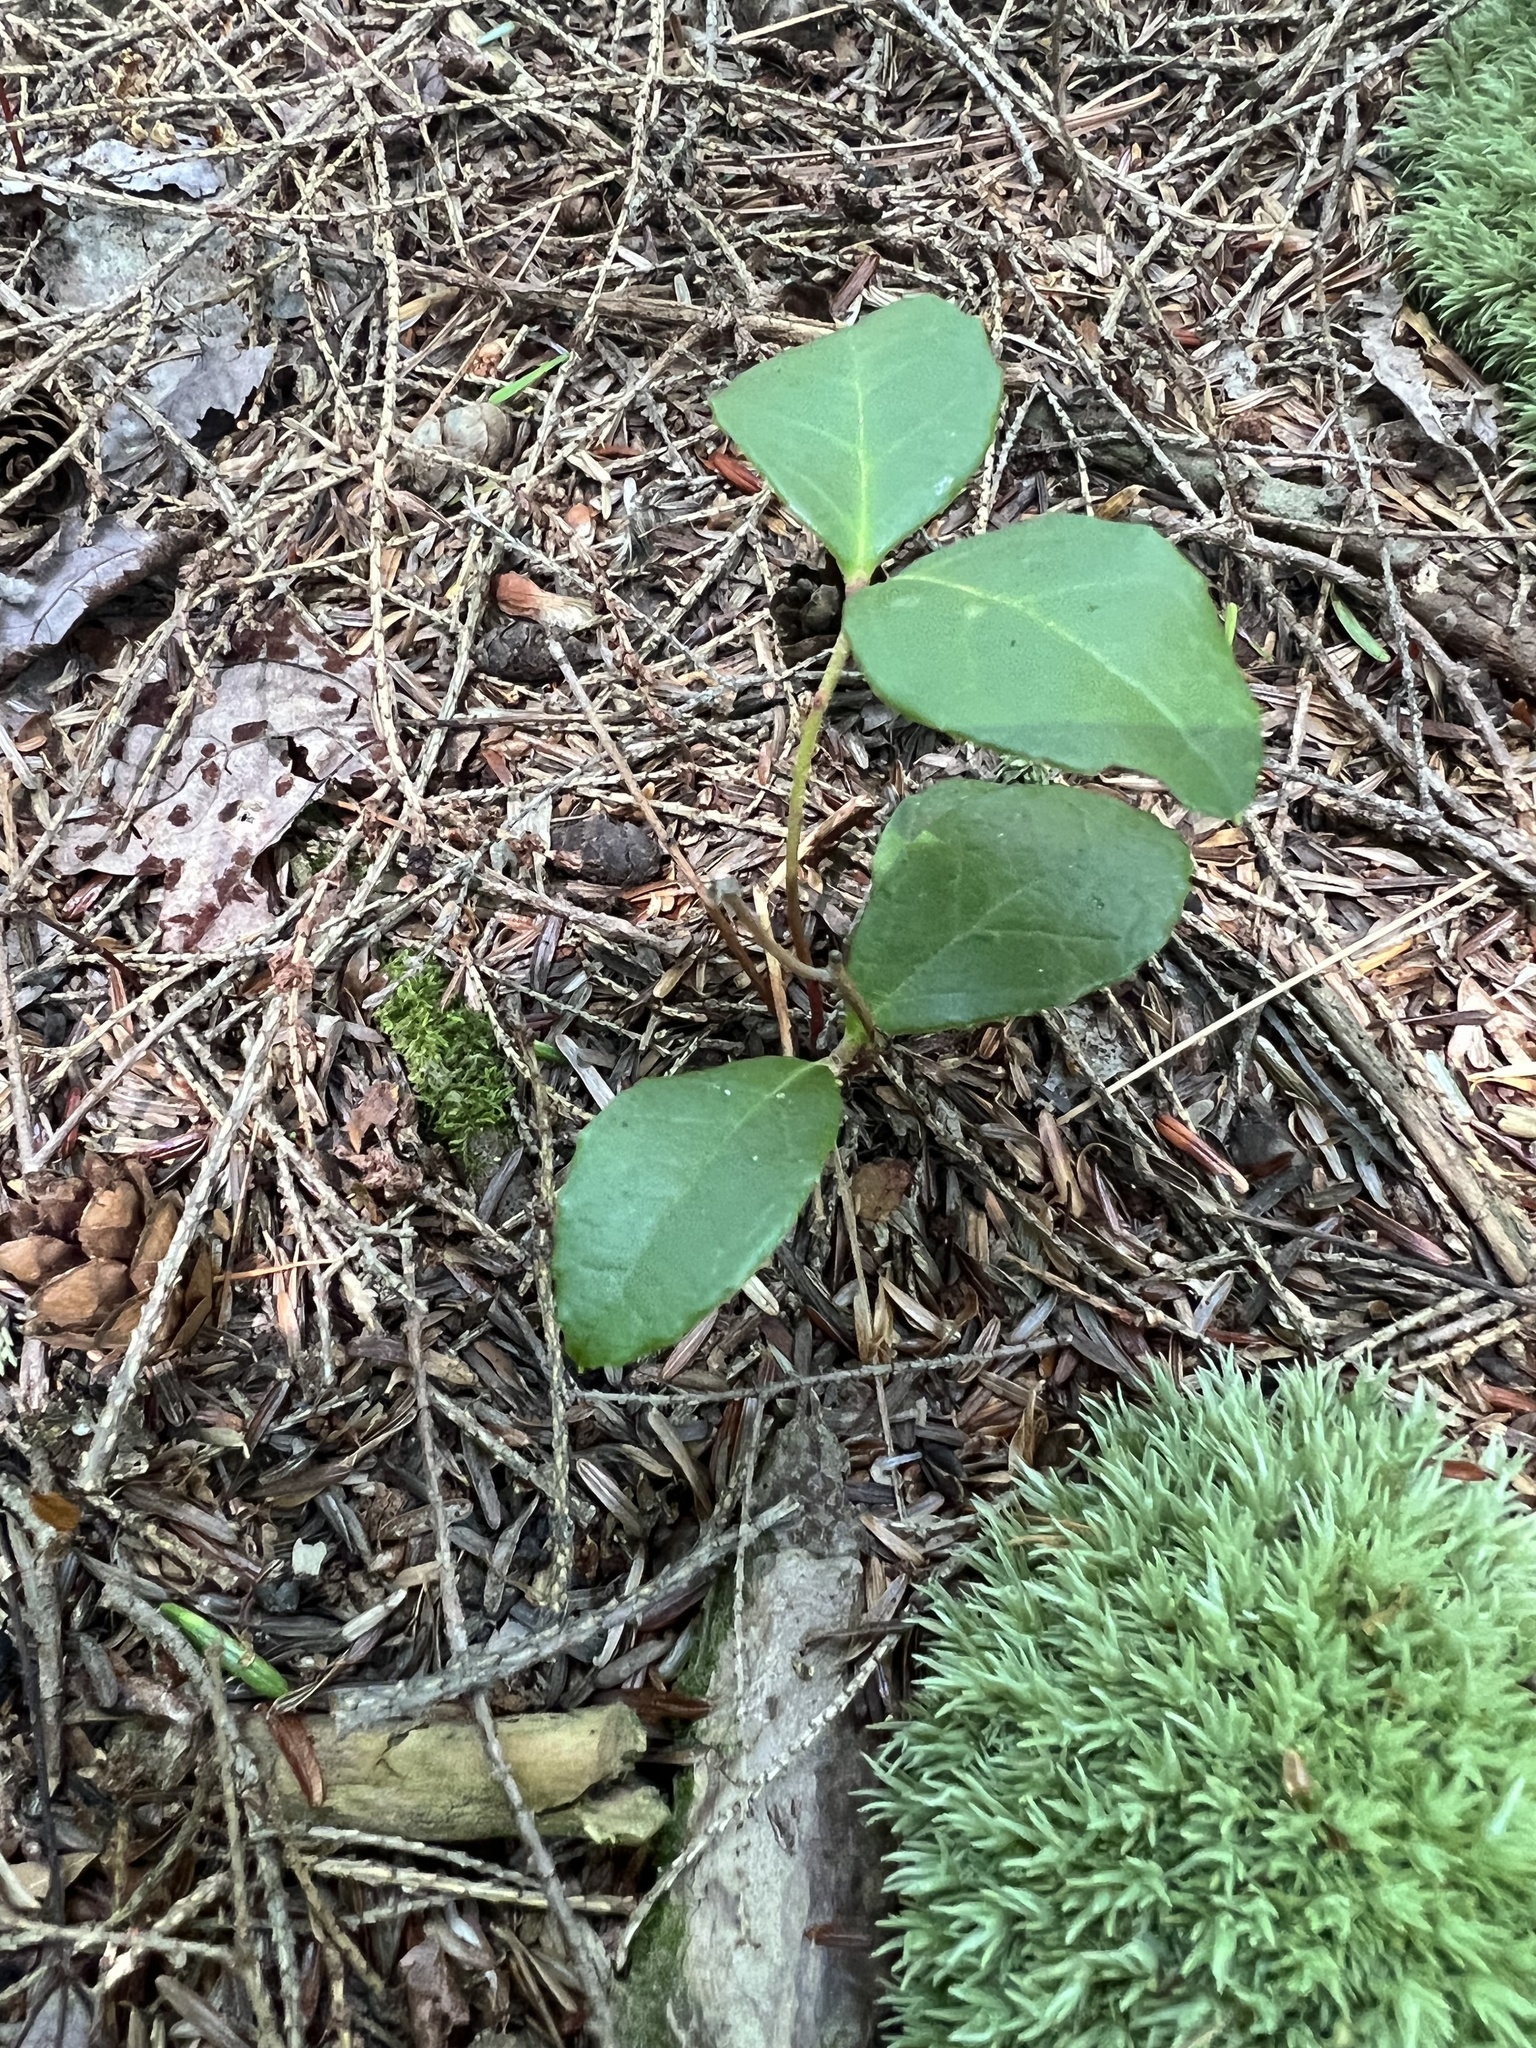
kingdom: Plantae
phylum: Tracheophyta
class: Magnoliopsida
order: Ericales
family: Ericaceae
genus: Gaultheria
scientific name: Gaultheria procumbens
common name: Checkerberry
